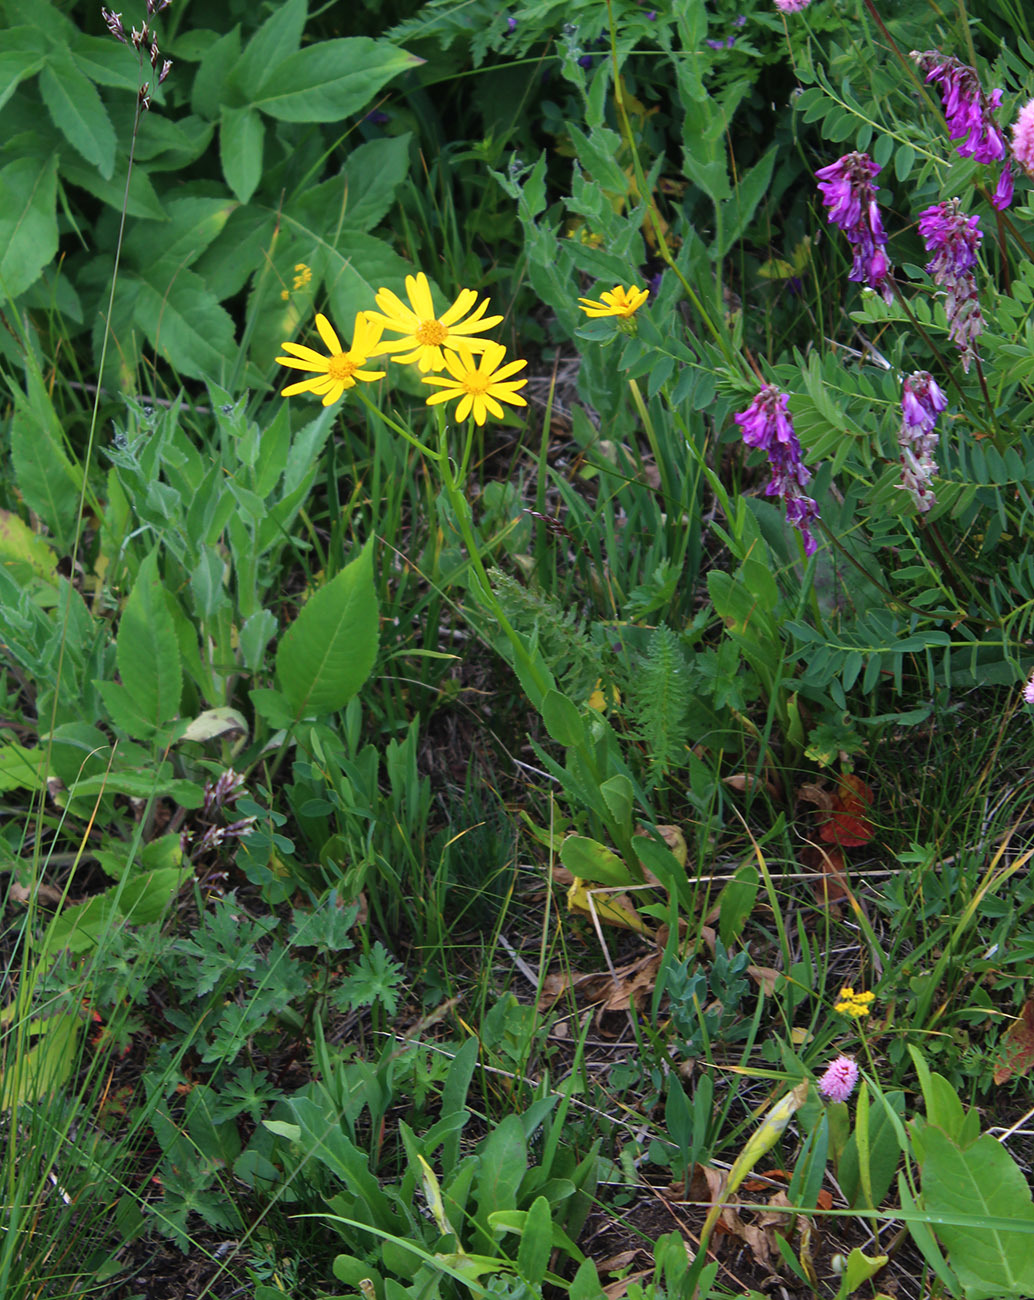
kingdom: Plantae
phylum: Tracheophyta
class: Magnoliopsida
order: Asterales
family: Asteraceae
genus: Senecio
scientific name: Senecio kolenatianus
